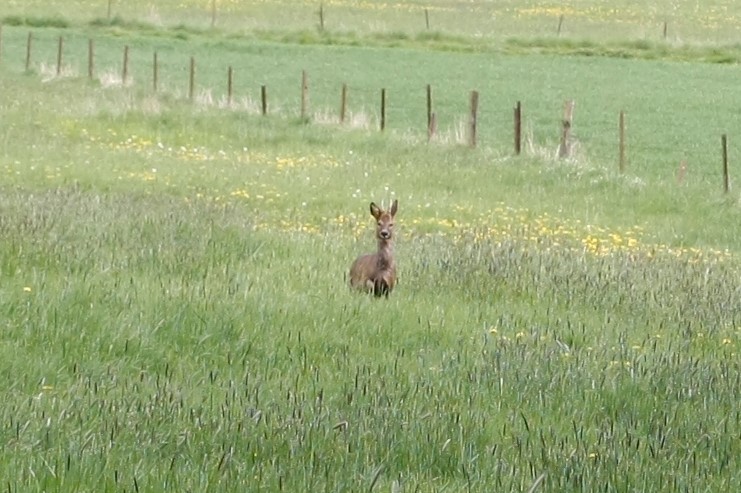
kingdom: Animalia
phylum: Chordata
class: Mammalia
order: Artiodactyla
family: Cervidae
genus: Capreolus
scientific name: Capreolus capreolus
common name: Western roe deer
